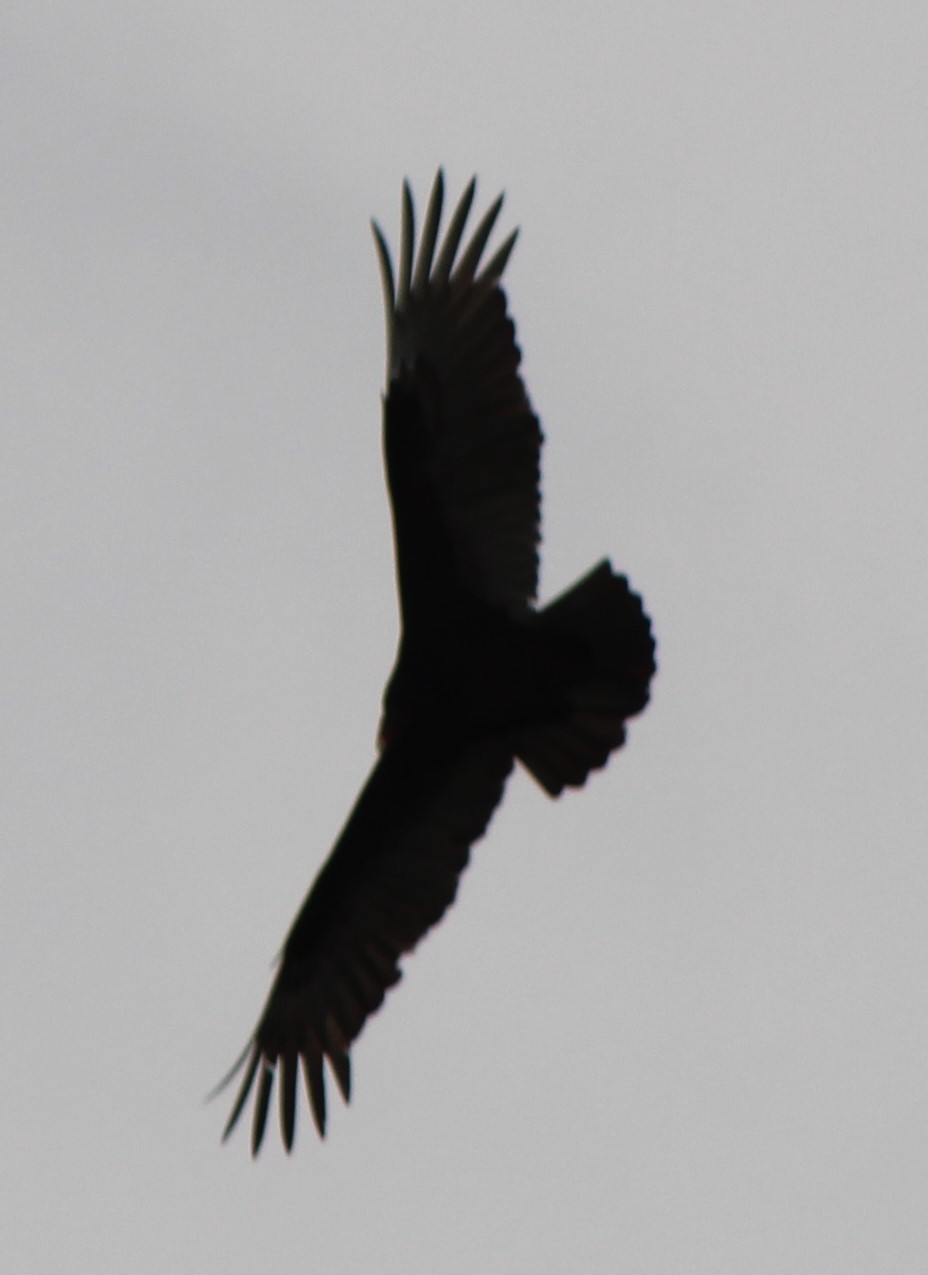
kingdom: Animalia
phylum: Chordata
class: Aves
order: Accipitriformes
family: Cathartidae
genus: Coragyps
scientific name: Coragyps atratus
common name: Black vulture
